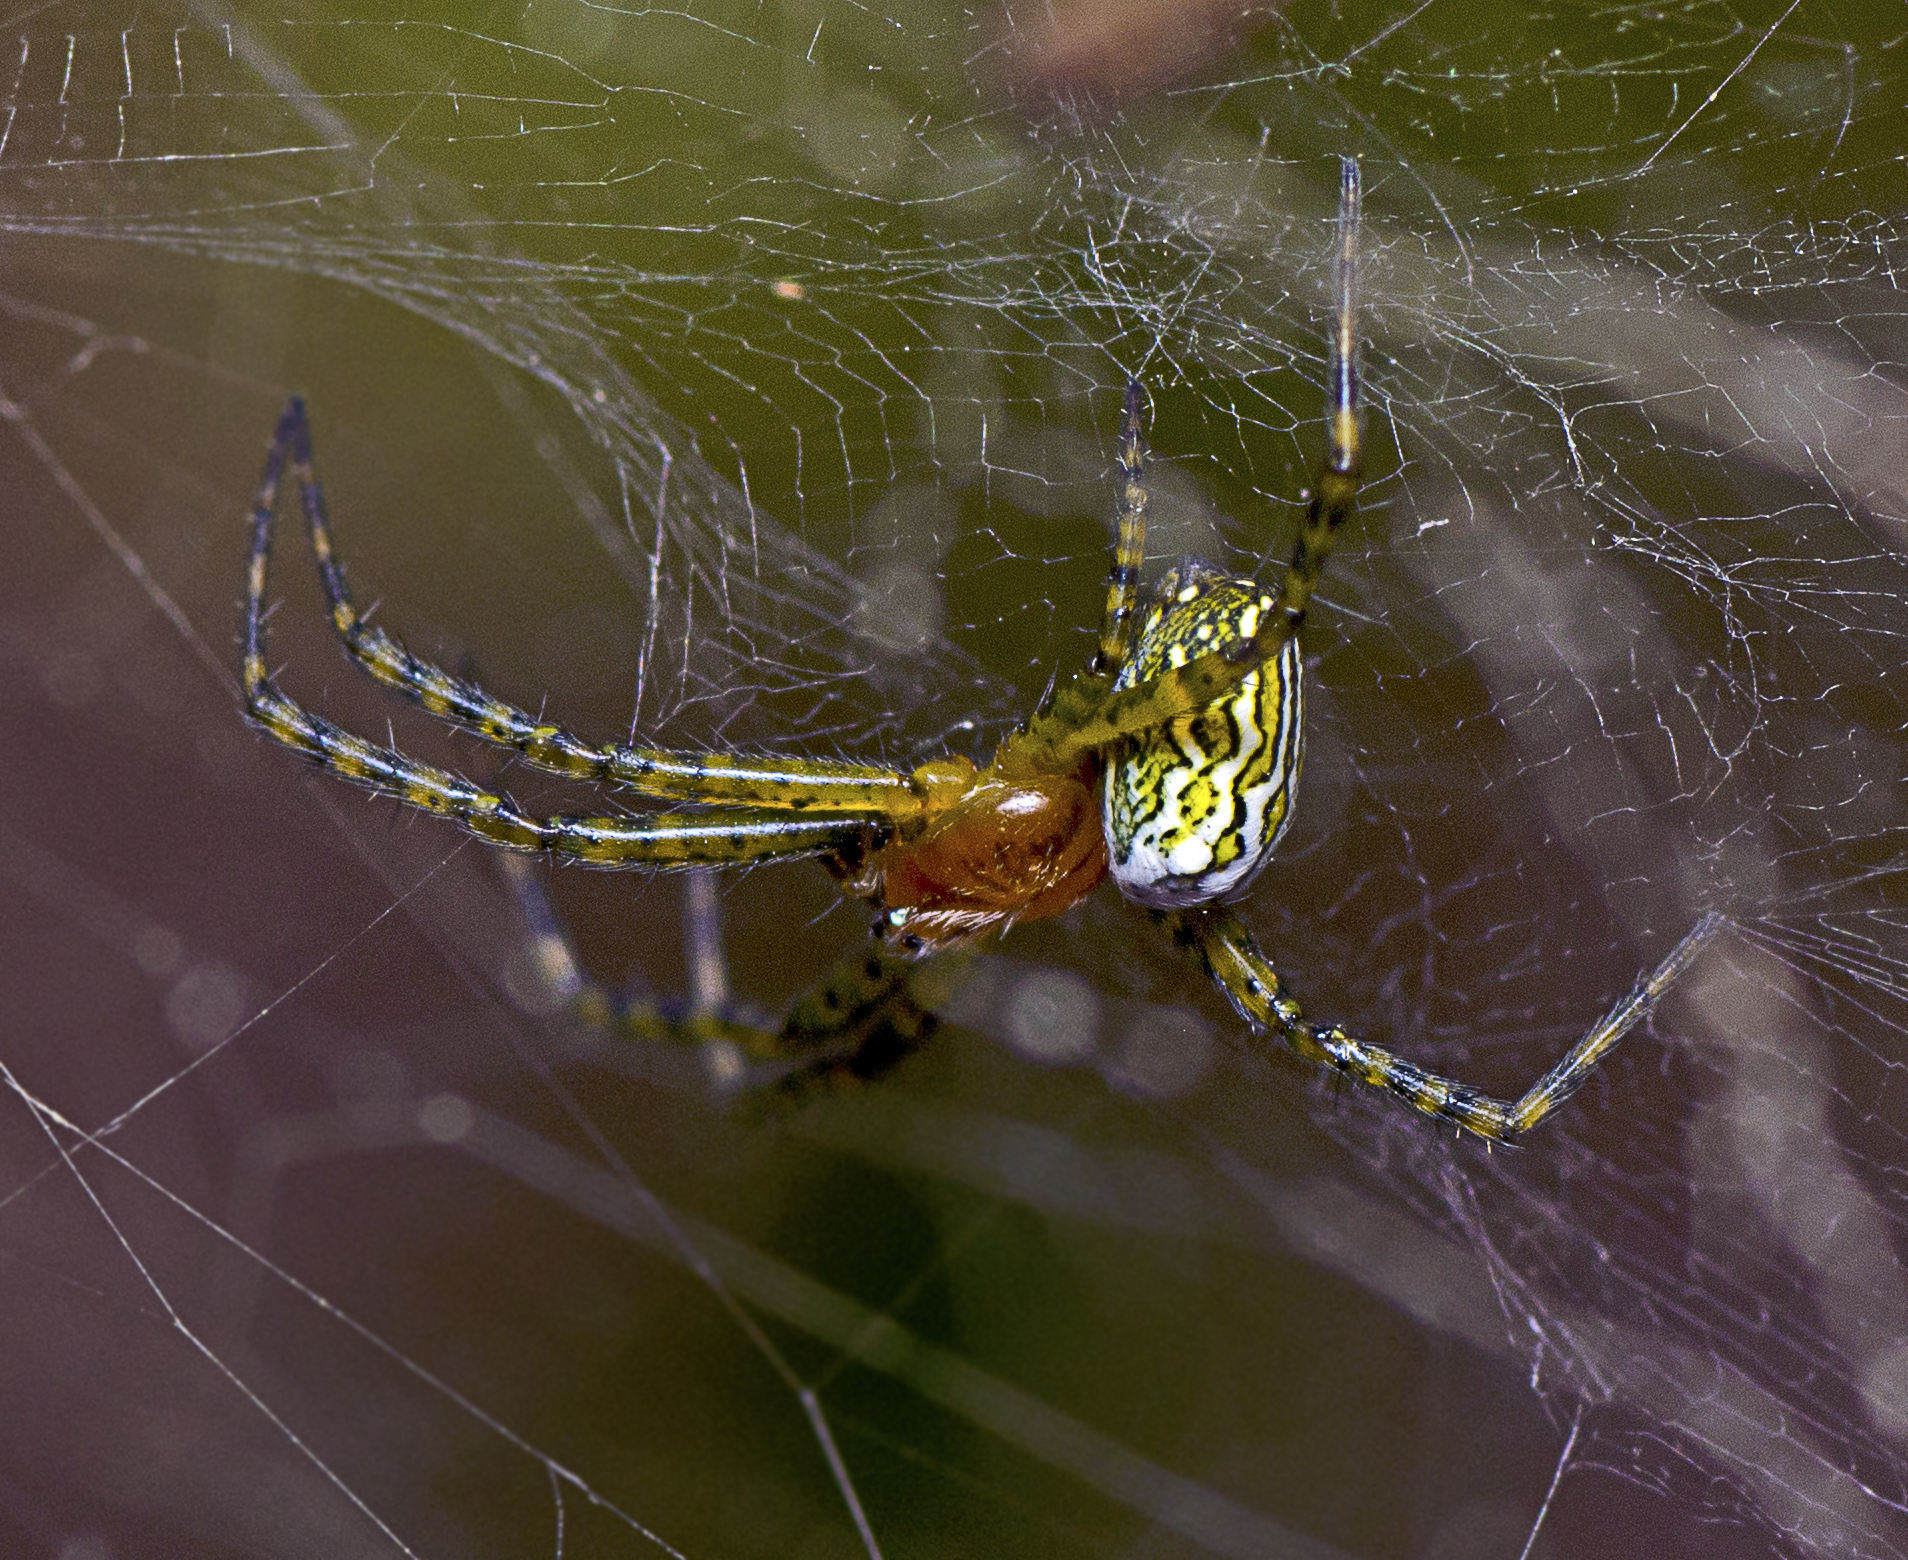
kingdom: Chromista
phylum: Ochrophyta
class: Dictyochophyceae
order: Pedinellales
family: Cyrtophoraceae
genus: Cyrtophora
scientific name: Cyrtophora moluccensis
